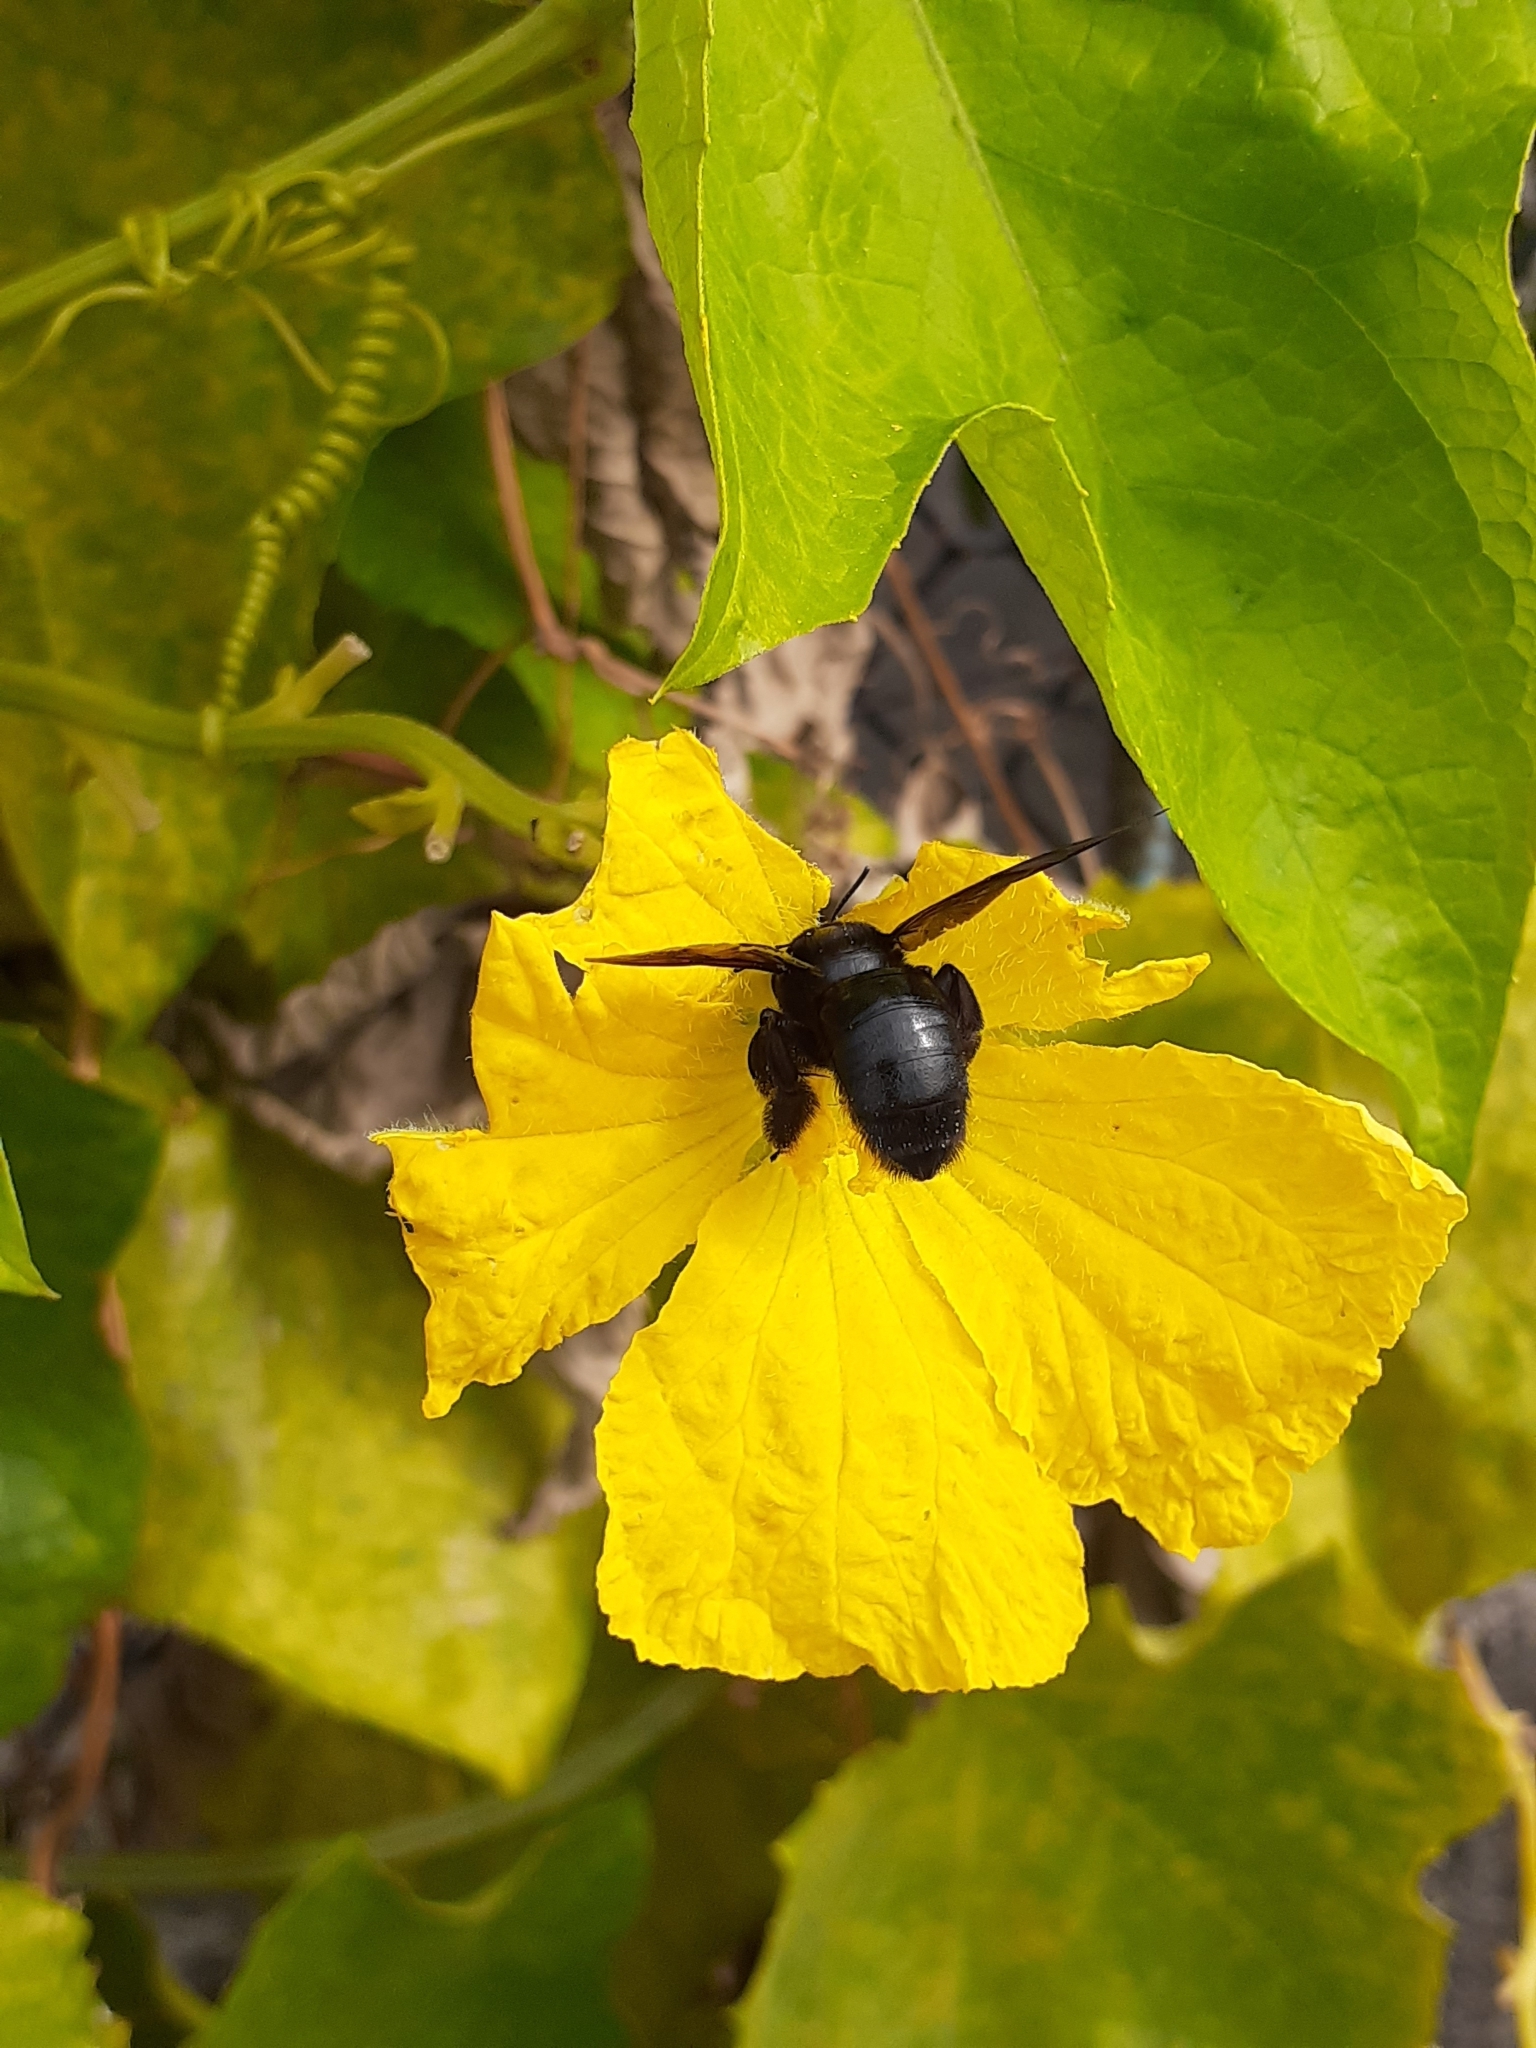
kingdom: Animalia
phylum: Arthropoda
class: Insecta
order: Hymenoptera
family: Apidae
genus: Xylocopa
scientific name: Xylocopa tranquebarorum
